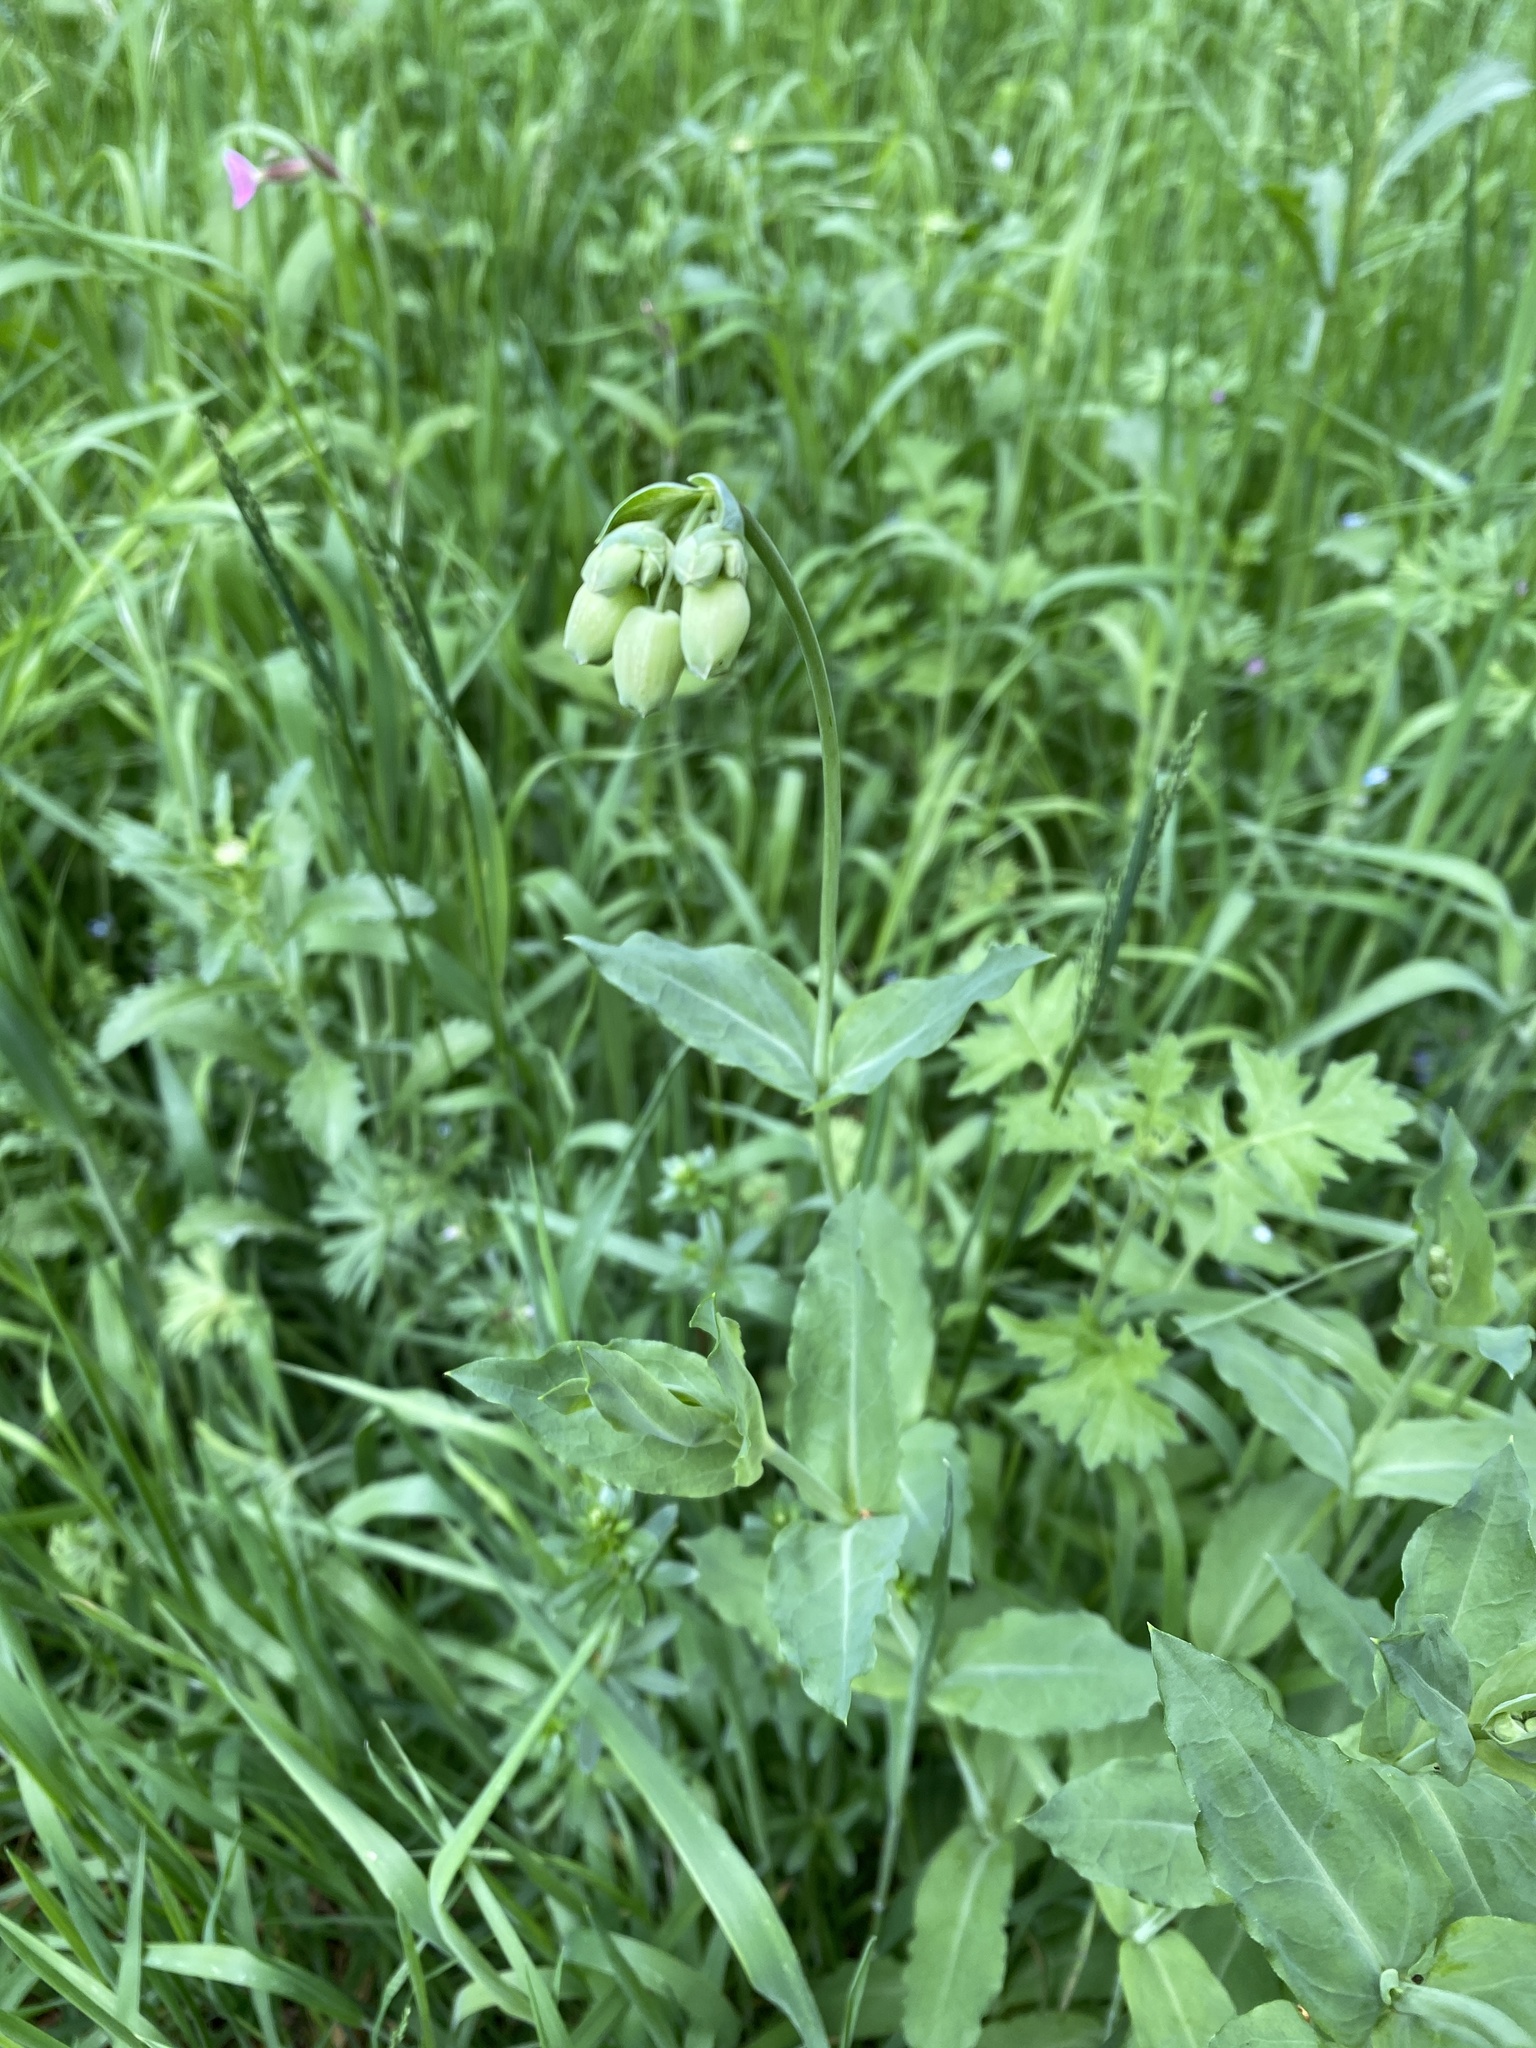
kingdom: Plantae
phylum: Tracheophyta
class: Magnoliopsida
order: Caryophyllales
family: Caryophyllaceae
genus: Silene
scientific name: Silene vulgaris
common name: Bladder campion
